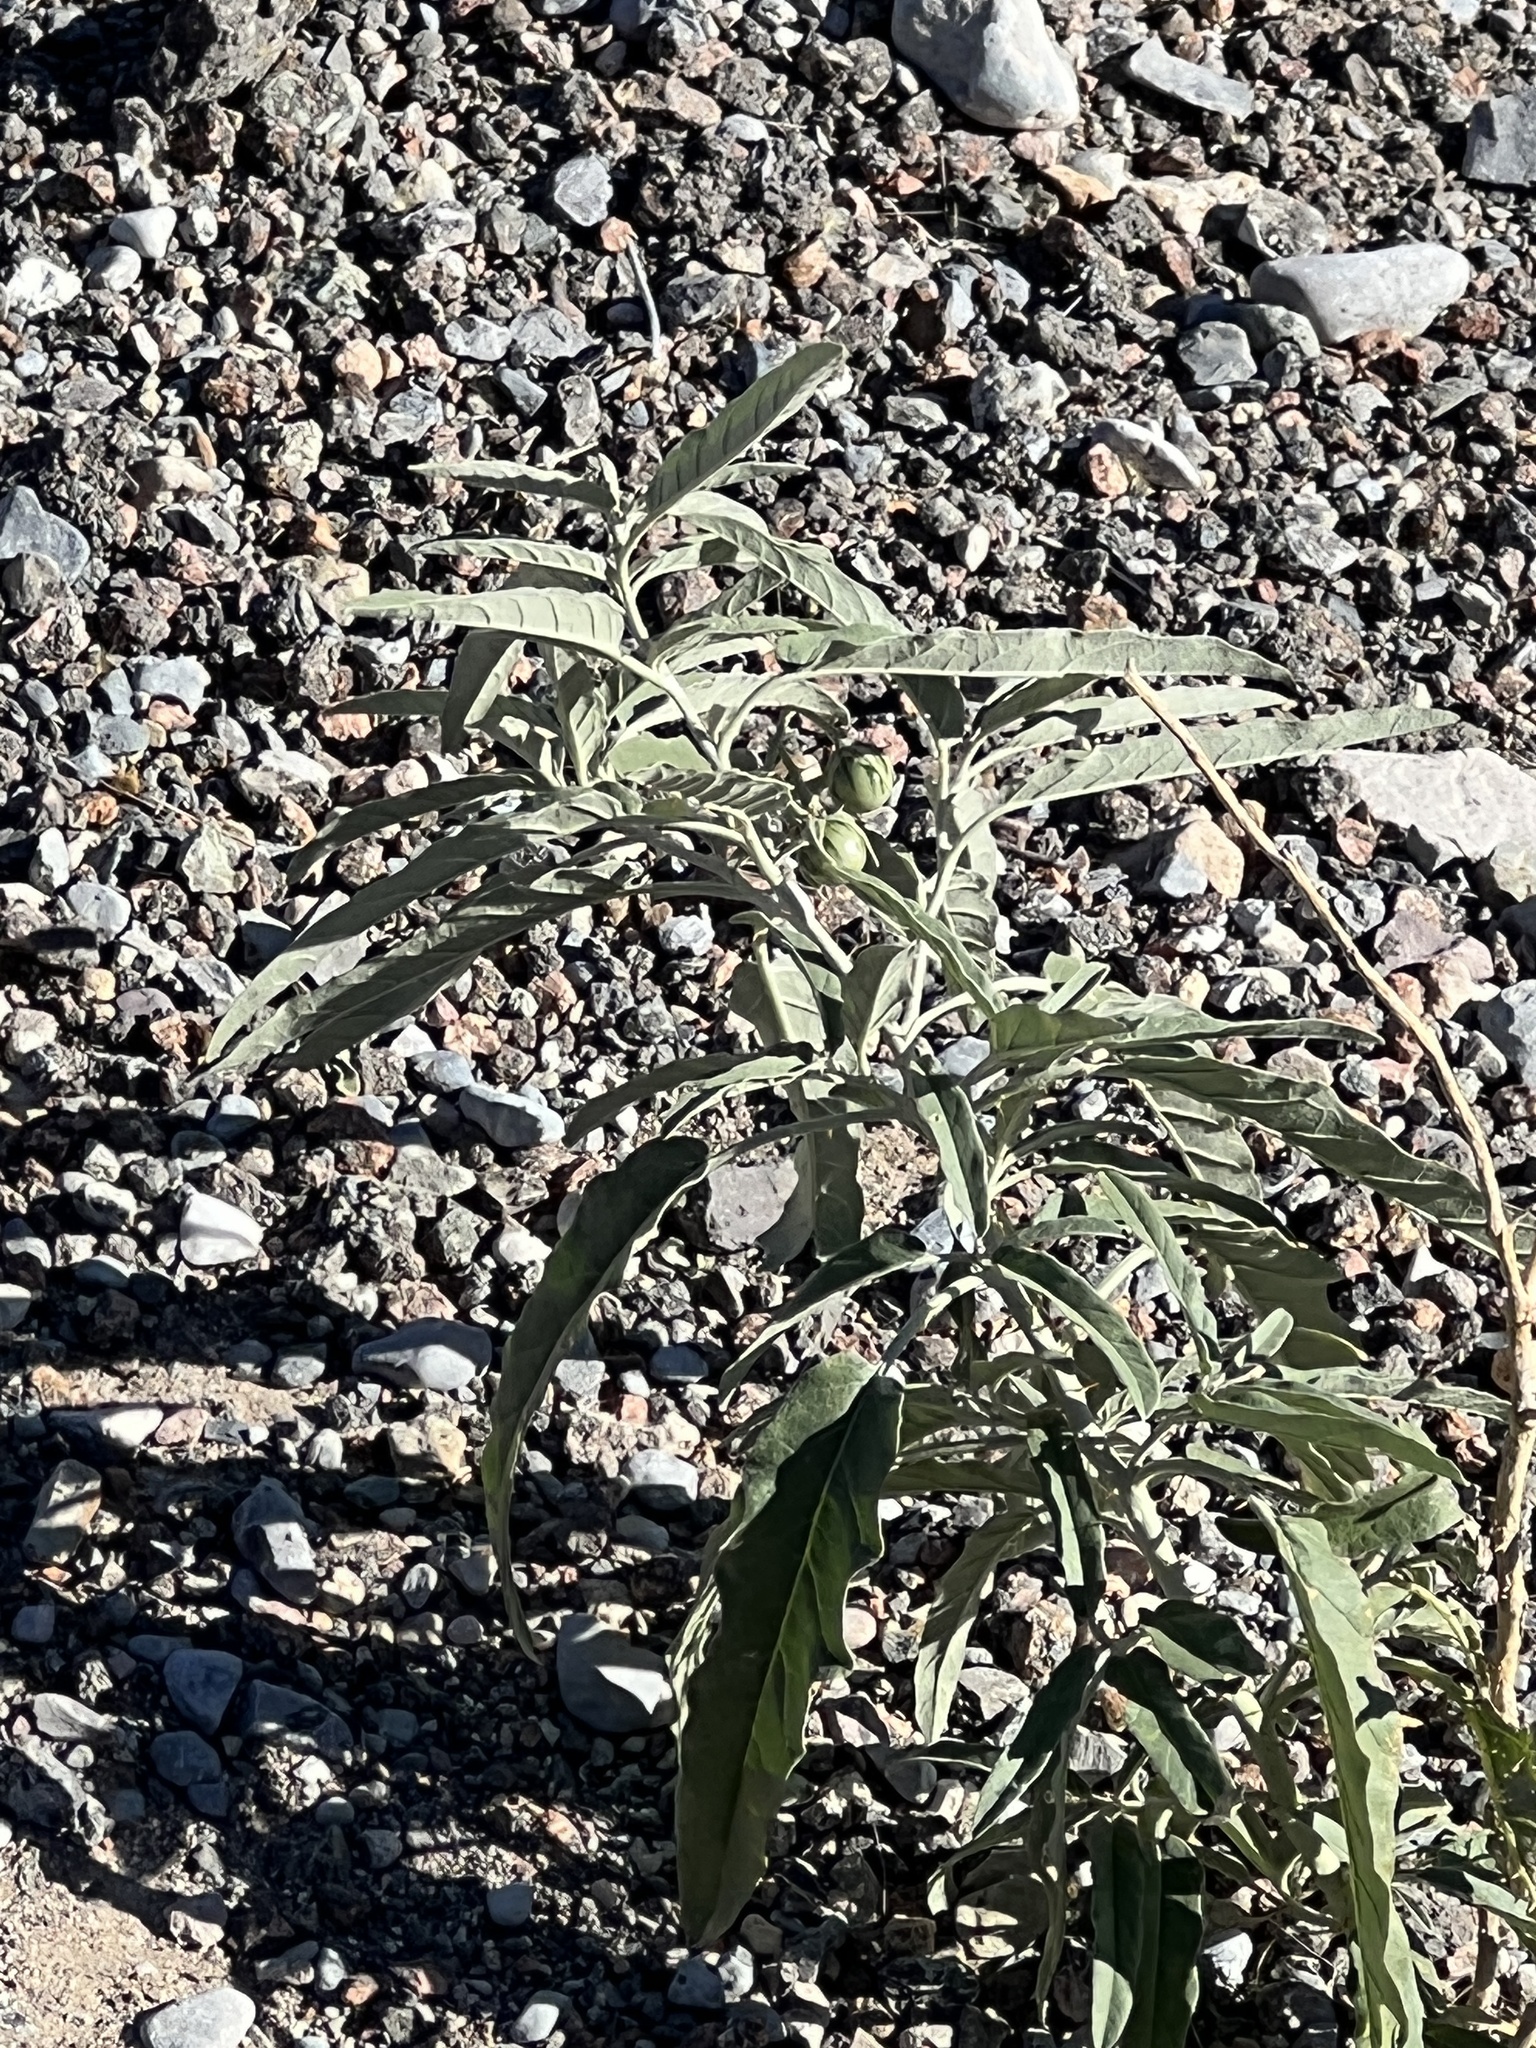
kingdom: Plantae
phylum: Tracheophyta
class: Magnoliopsida
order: Solanales
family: Solanaceae
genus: Solanum
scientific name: Solanum elaeagnifolium
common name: Silverleaf nightshade
